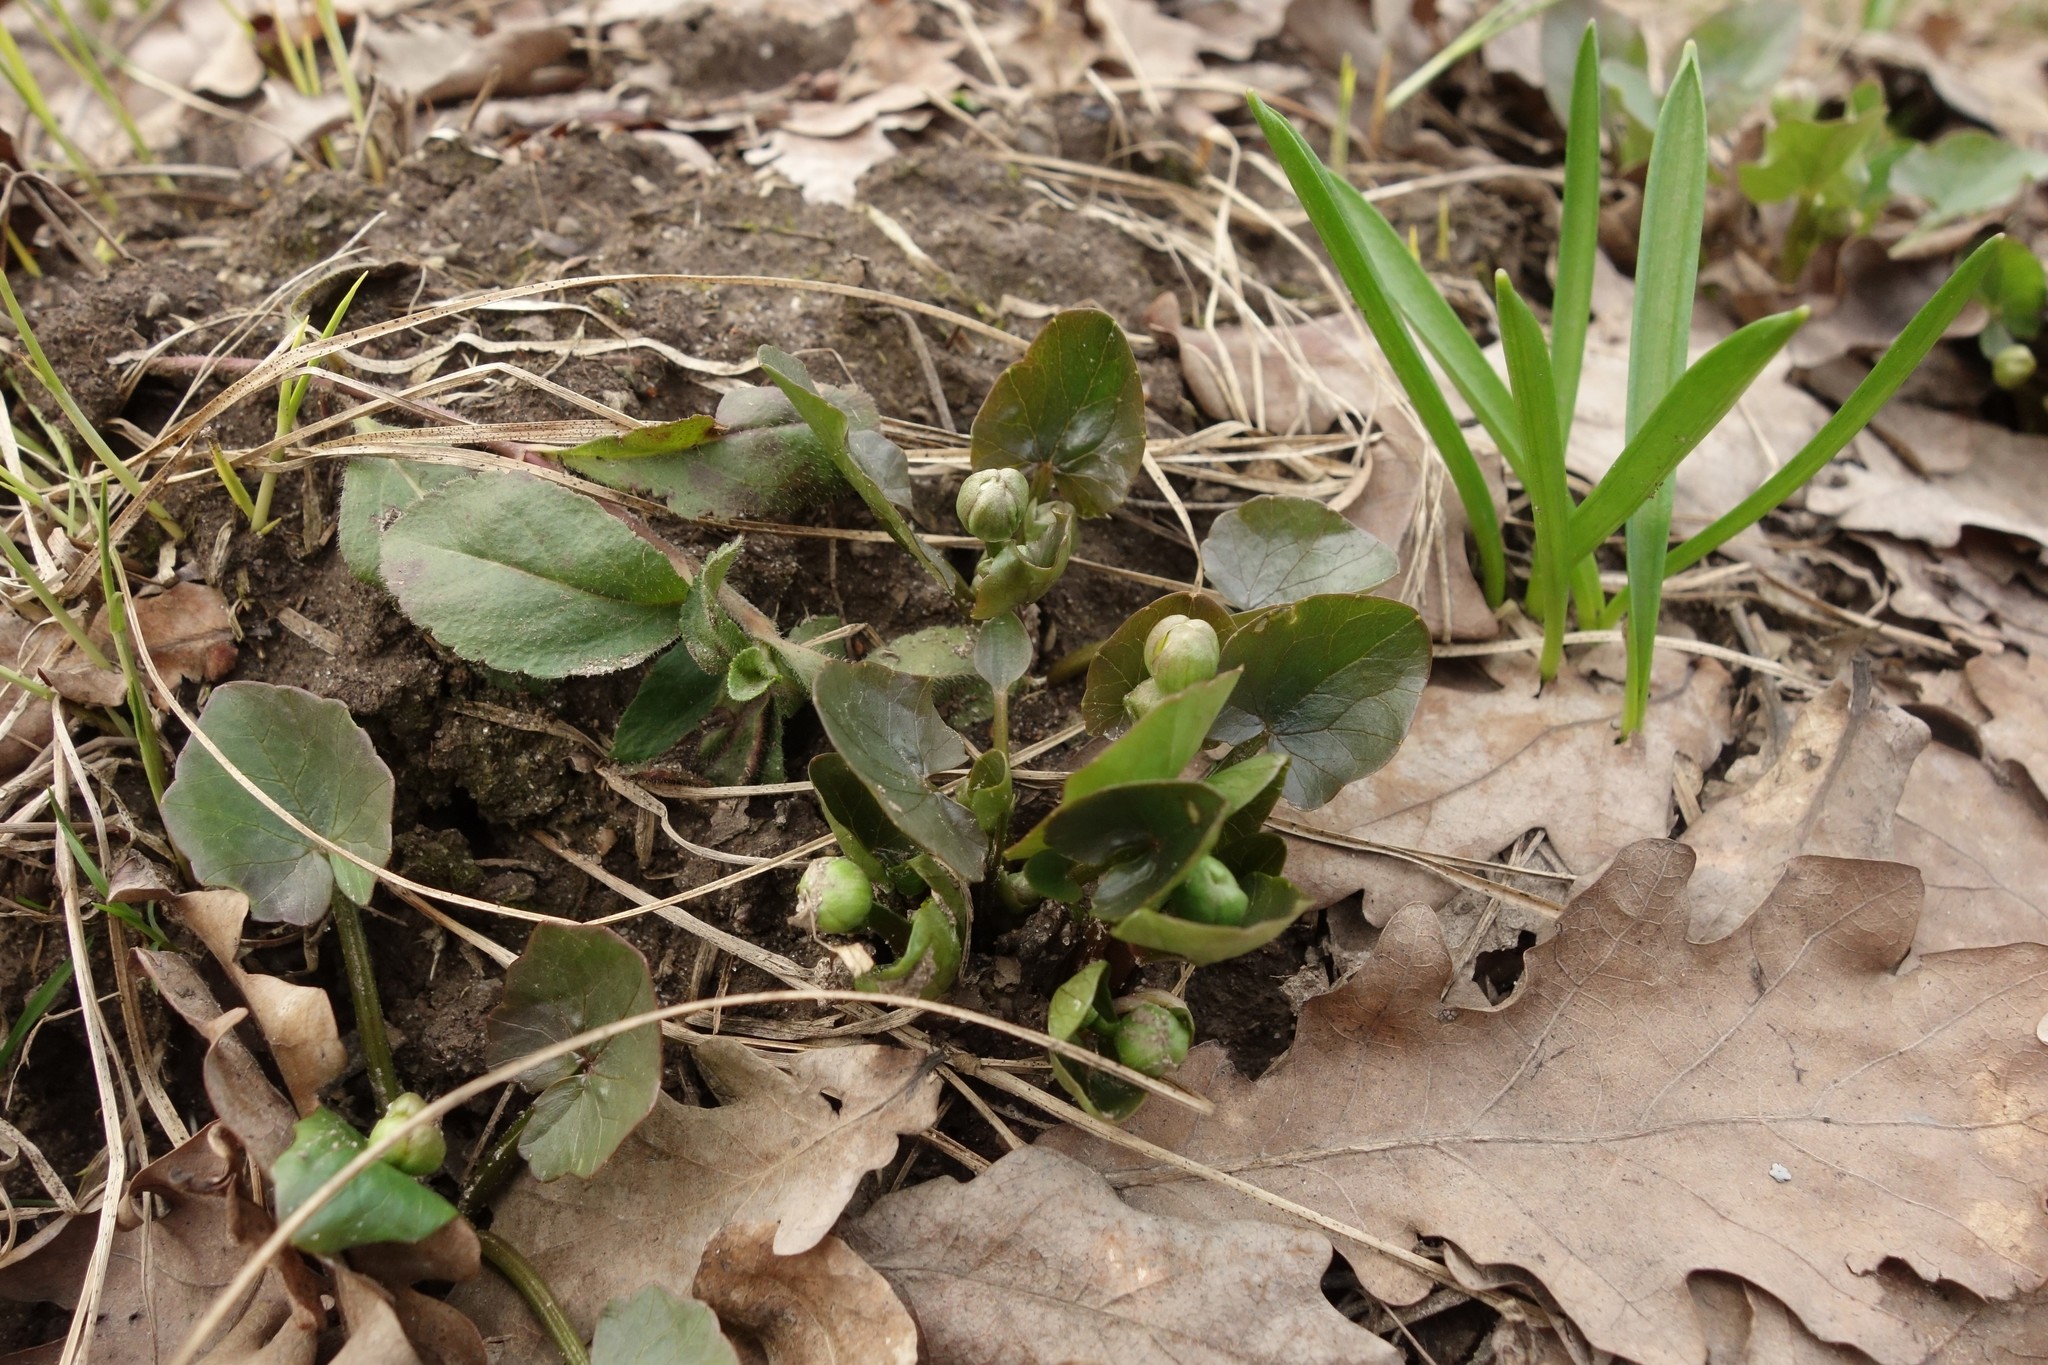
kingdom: Plantae
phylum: Tracheophyta
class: Magnoliopsida
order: Ranunculales
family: Ranunculaceae
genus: Ficaria
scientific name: Ficaria verna
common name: Lesser celandine
